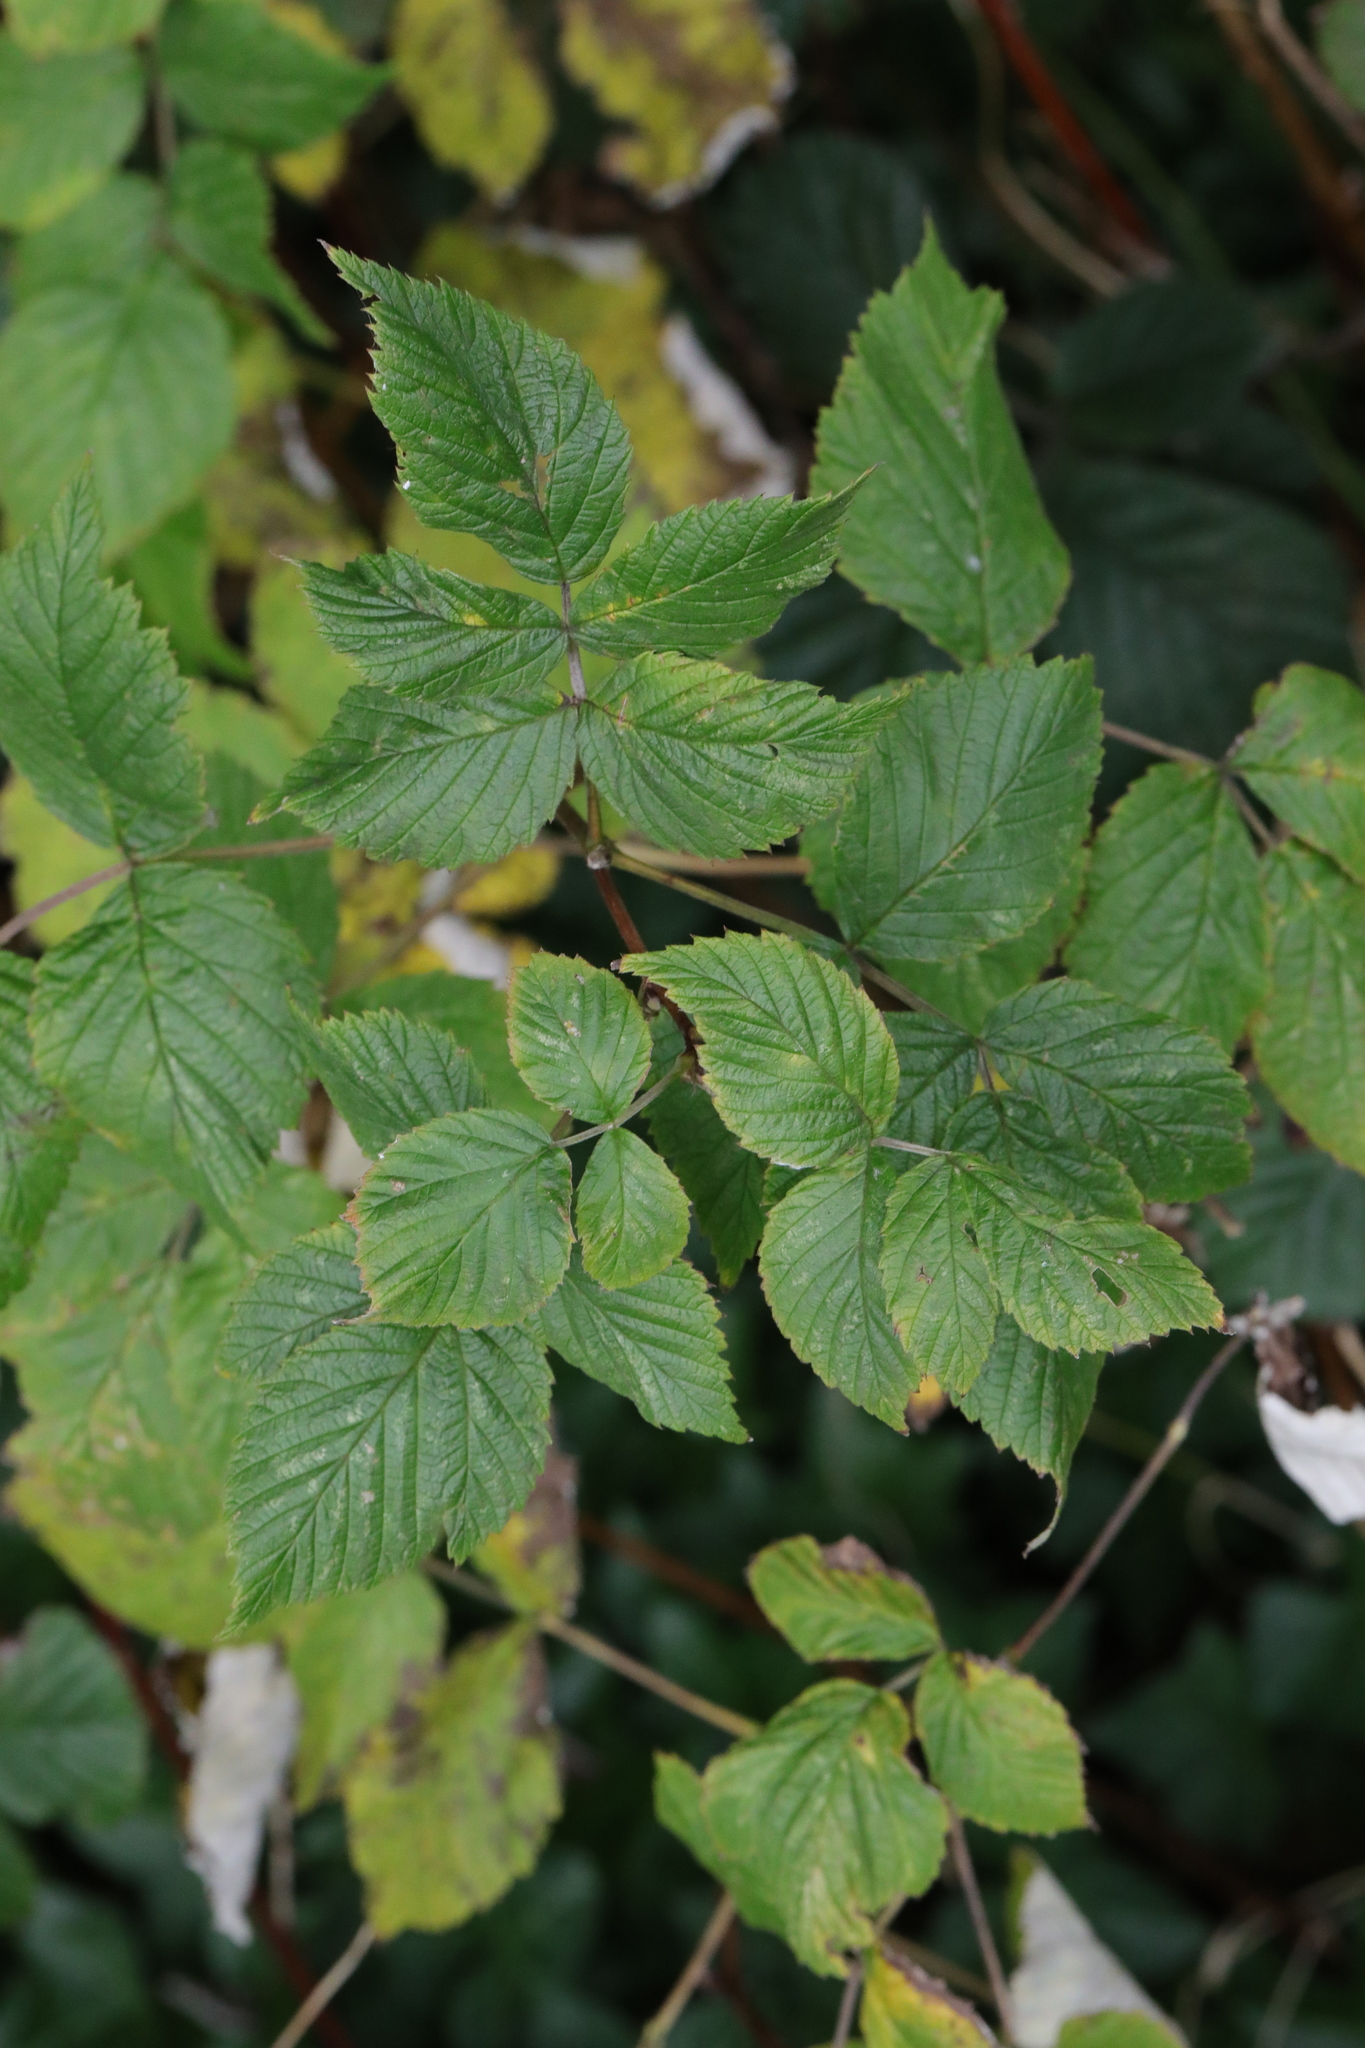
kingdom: Plantae
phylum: Tracheophyta
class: Magnoliopsida
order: Rosales
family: Rosaceae
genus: Rubus
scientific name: Rubus idaeus
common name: Raspberry
